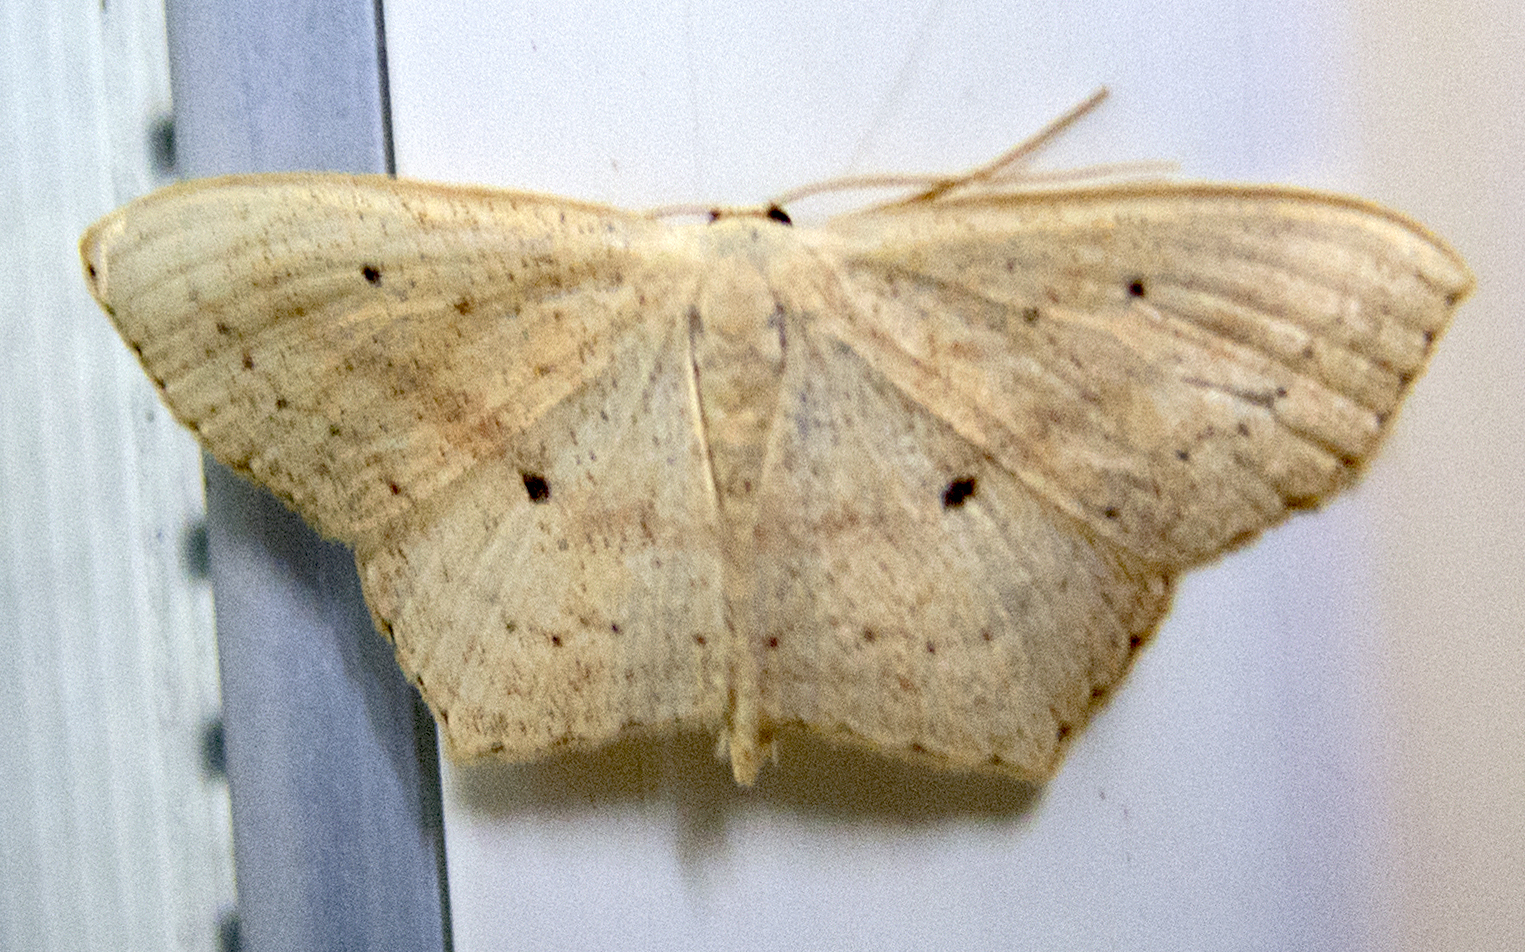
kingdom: Animalia
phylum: Arthropoda
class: Insecta
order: Lepidoptera
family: Geometridae
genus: Scopula
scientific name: Scopula flaccidaria
